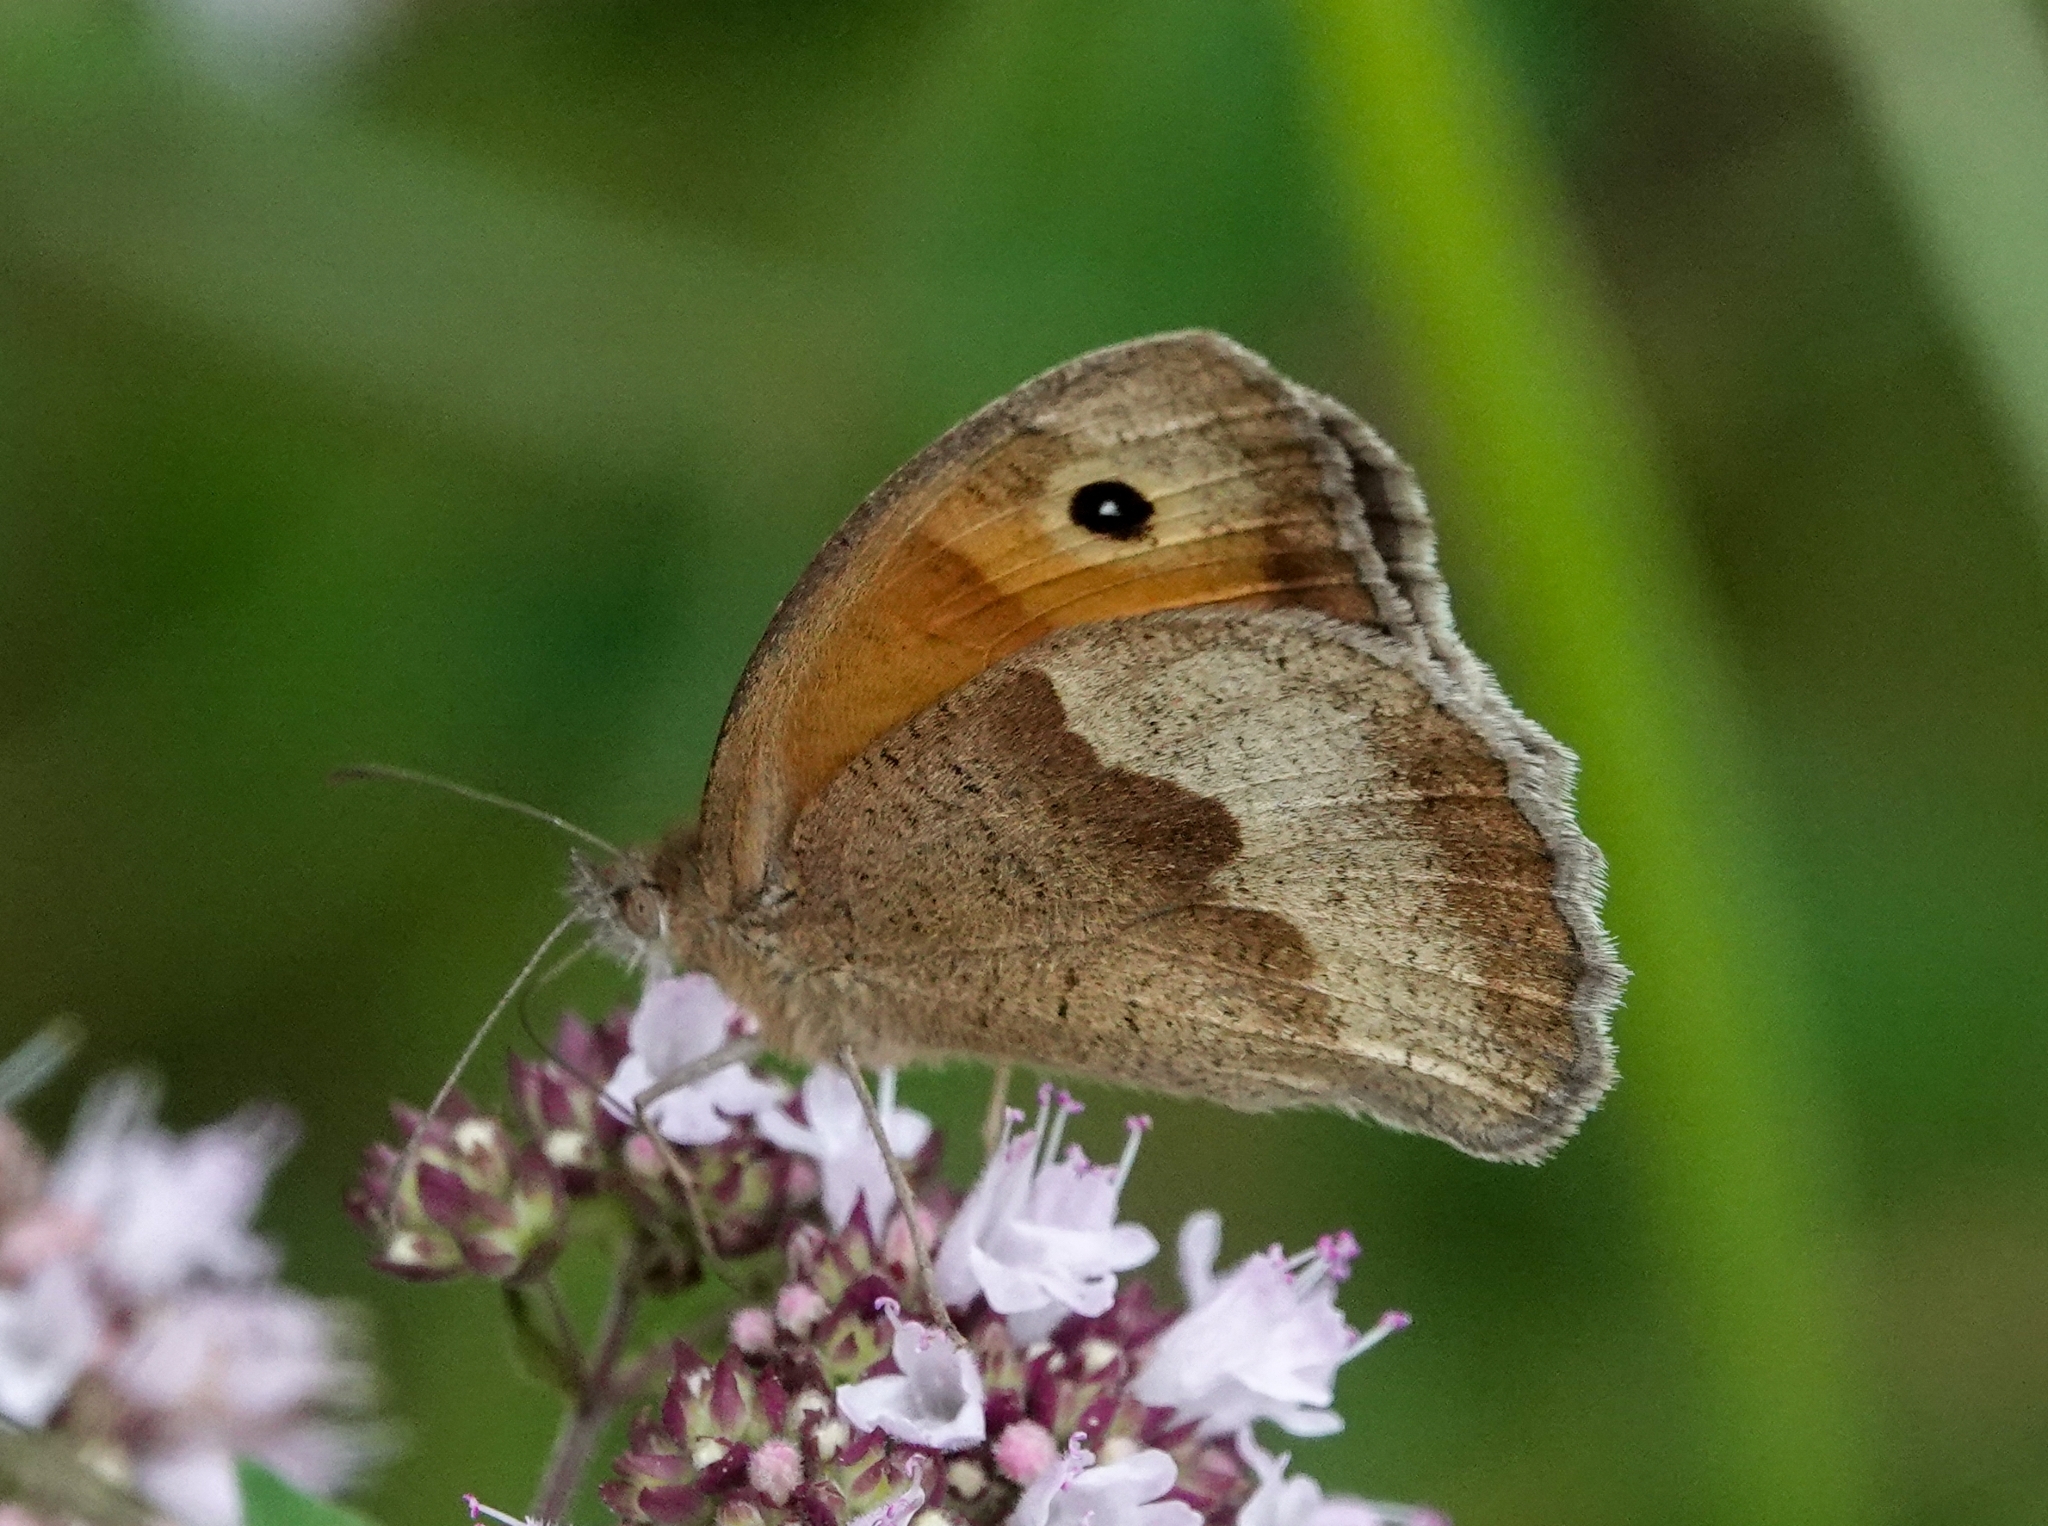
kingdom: Animalia
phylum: Arthropoda
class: Insecta
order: Lepidoptera
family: Nymphalidae
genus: Maniola
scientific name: Maniola jurtina
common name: Meadow brown
